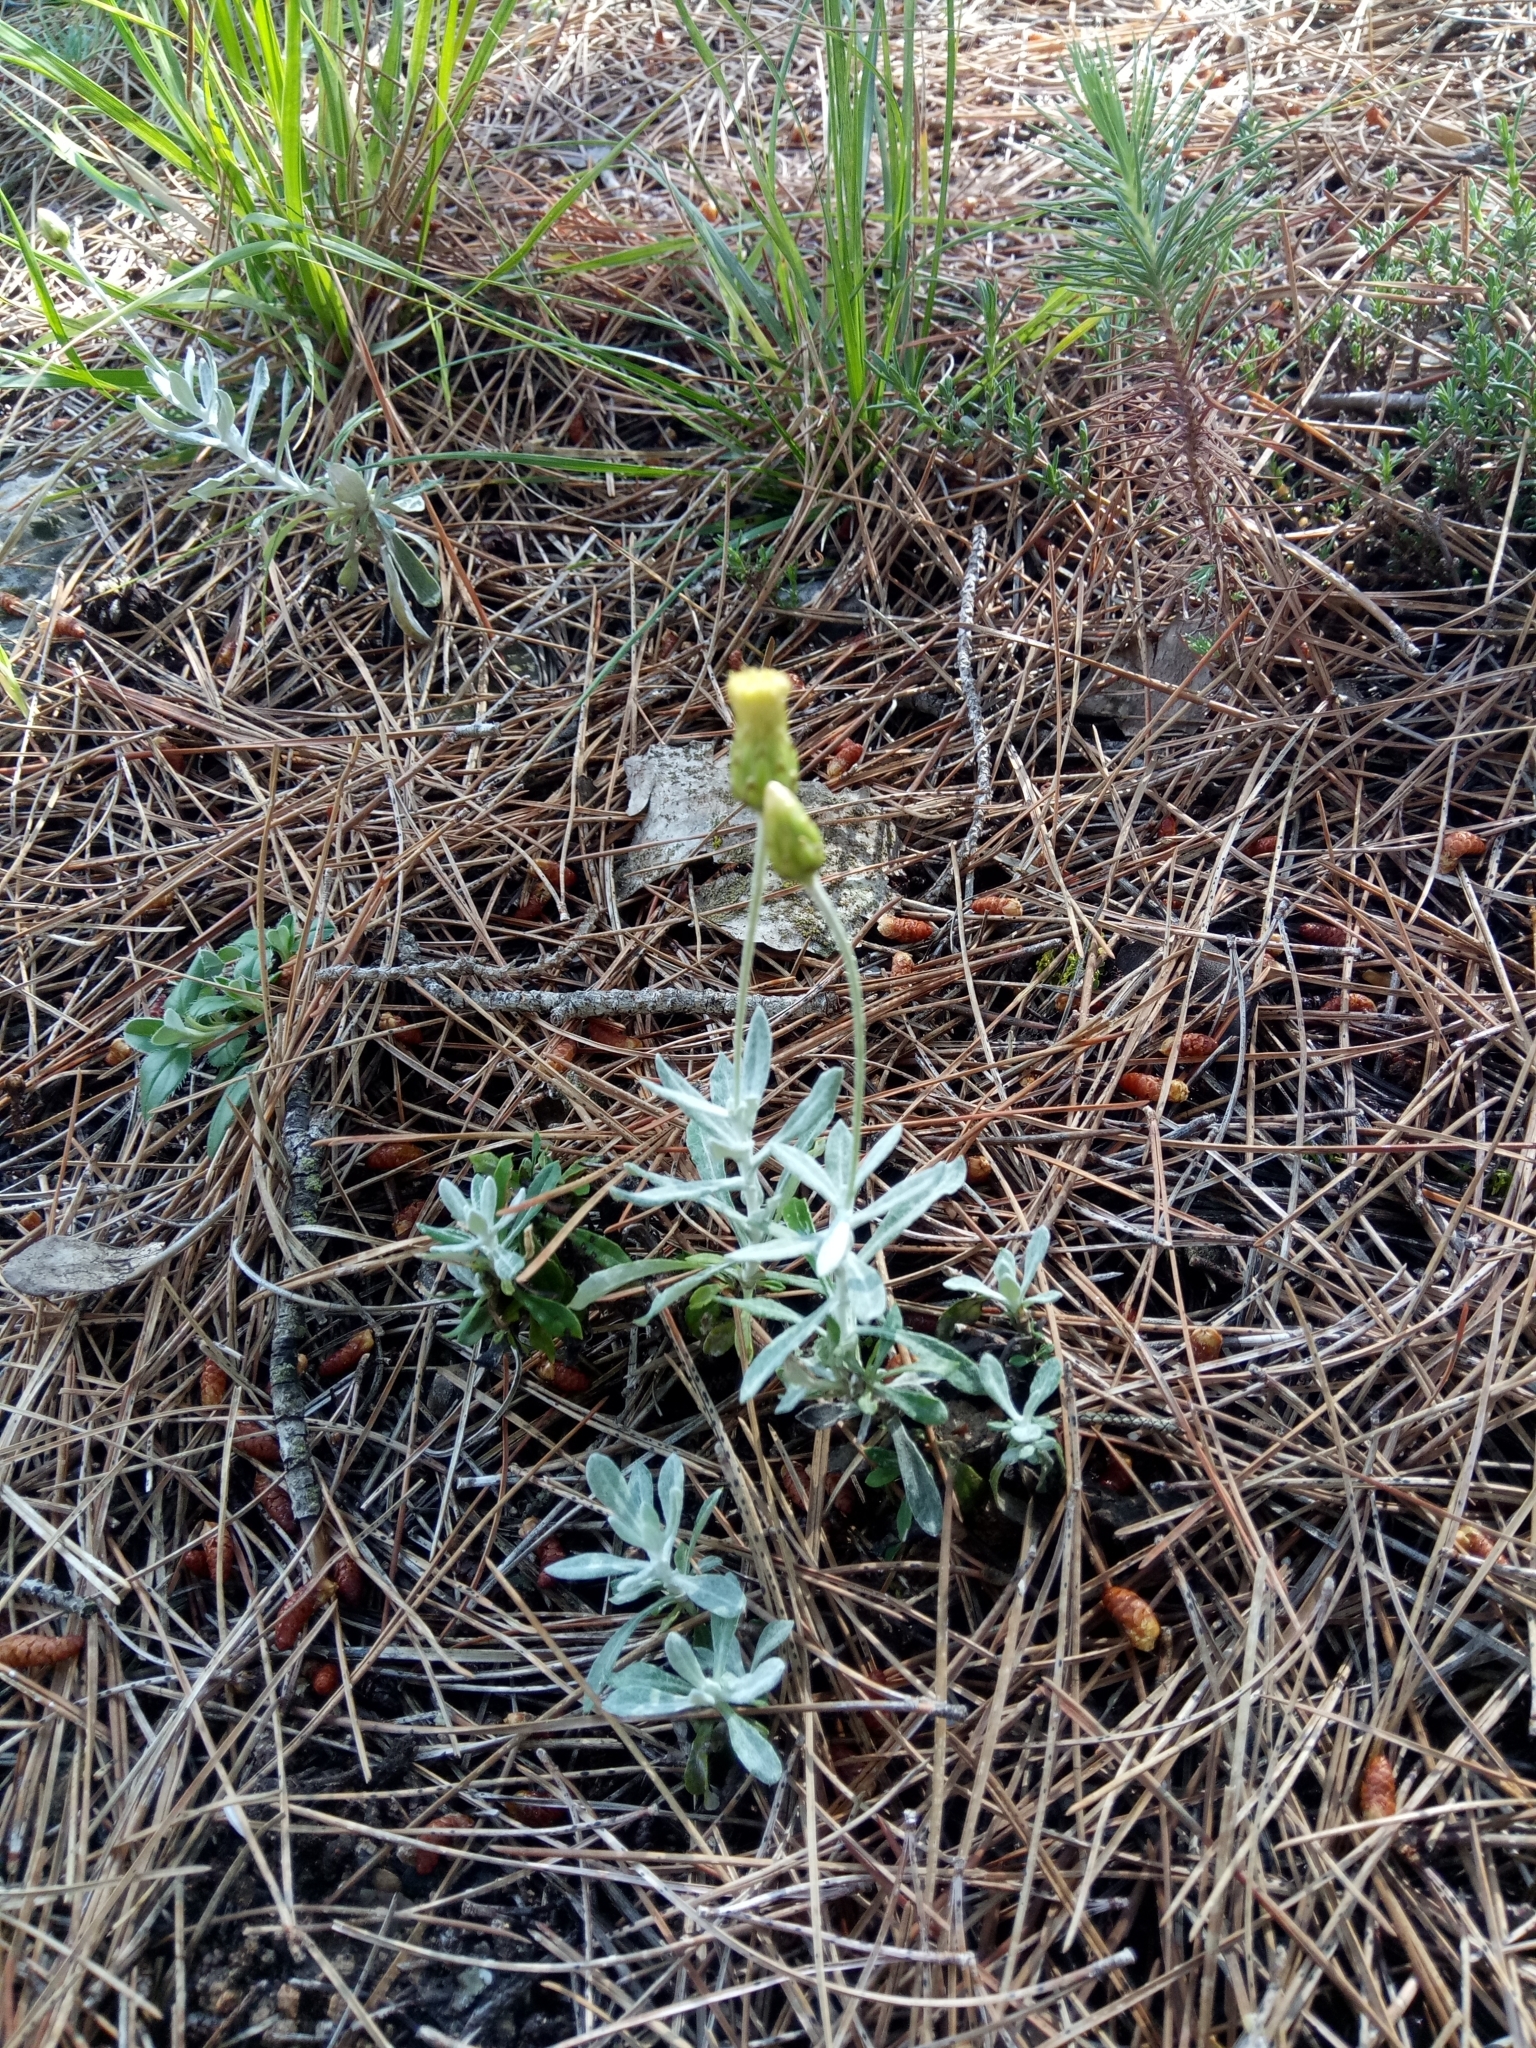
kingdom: Plantae
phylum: Tracheophyta
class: Magnoliopsida
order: Asterales
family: Asteraceae
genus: Phagnalon
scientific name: Phagnalon rupestre
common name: Rock phagnalon
